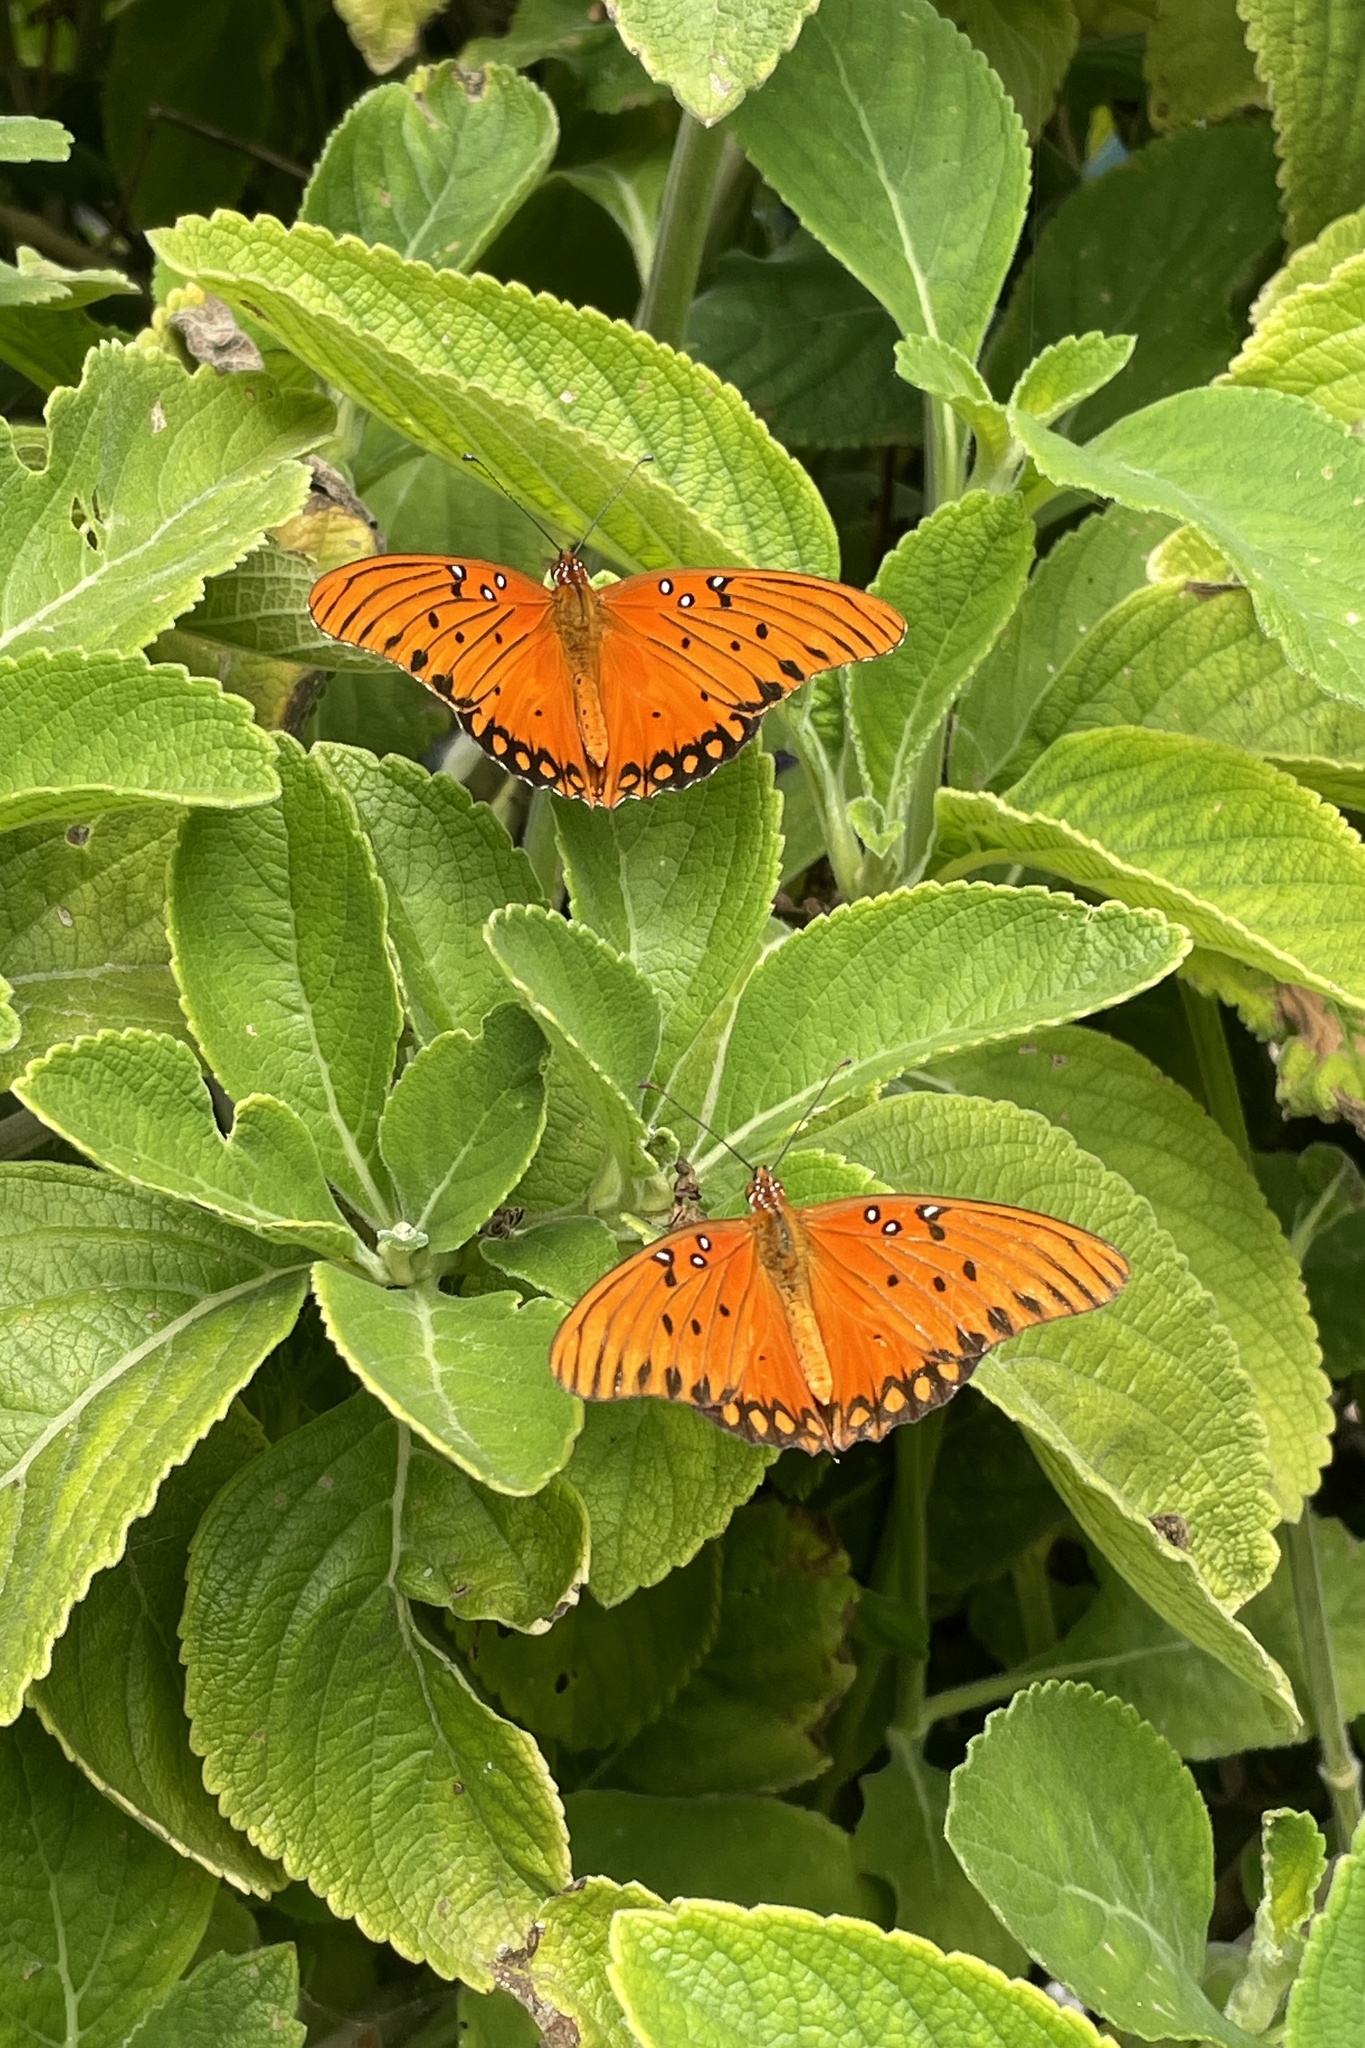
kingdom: Animalia
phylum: Arthropoda
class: Insecta
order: Lepidoptera
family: Nymphalidae
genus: Dione
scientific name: Dione vanillae
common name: Gulf fritillary
